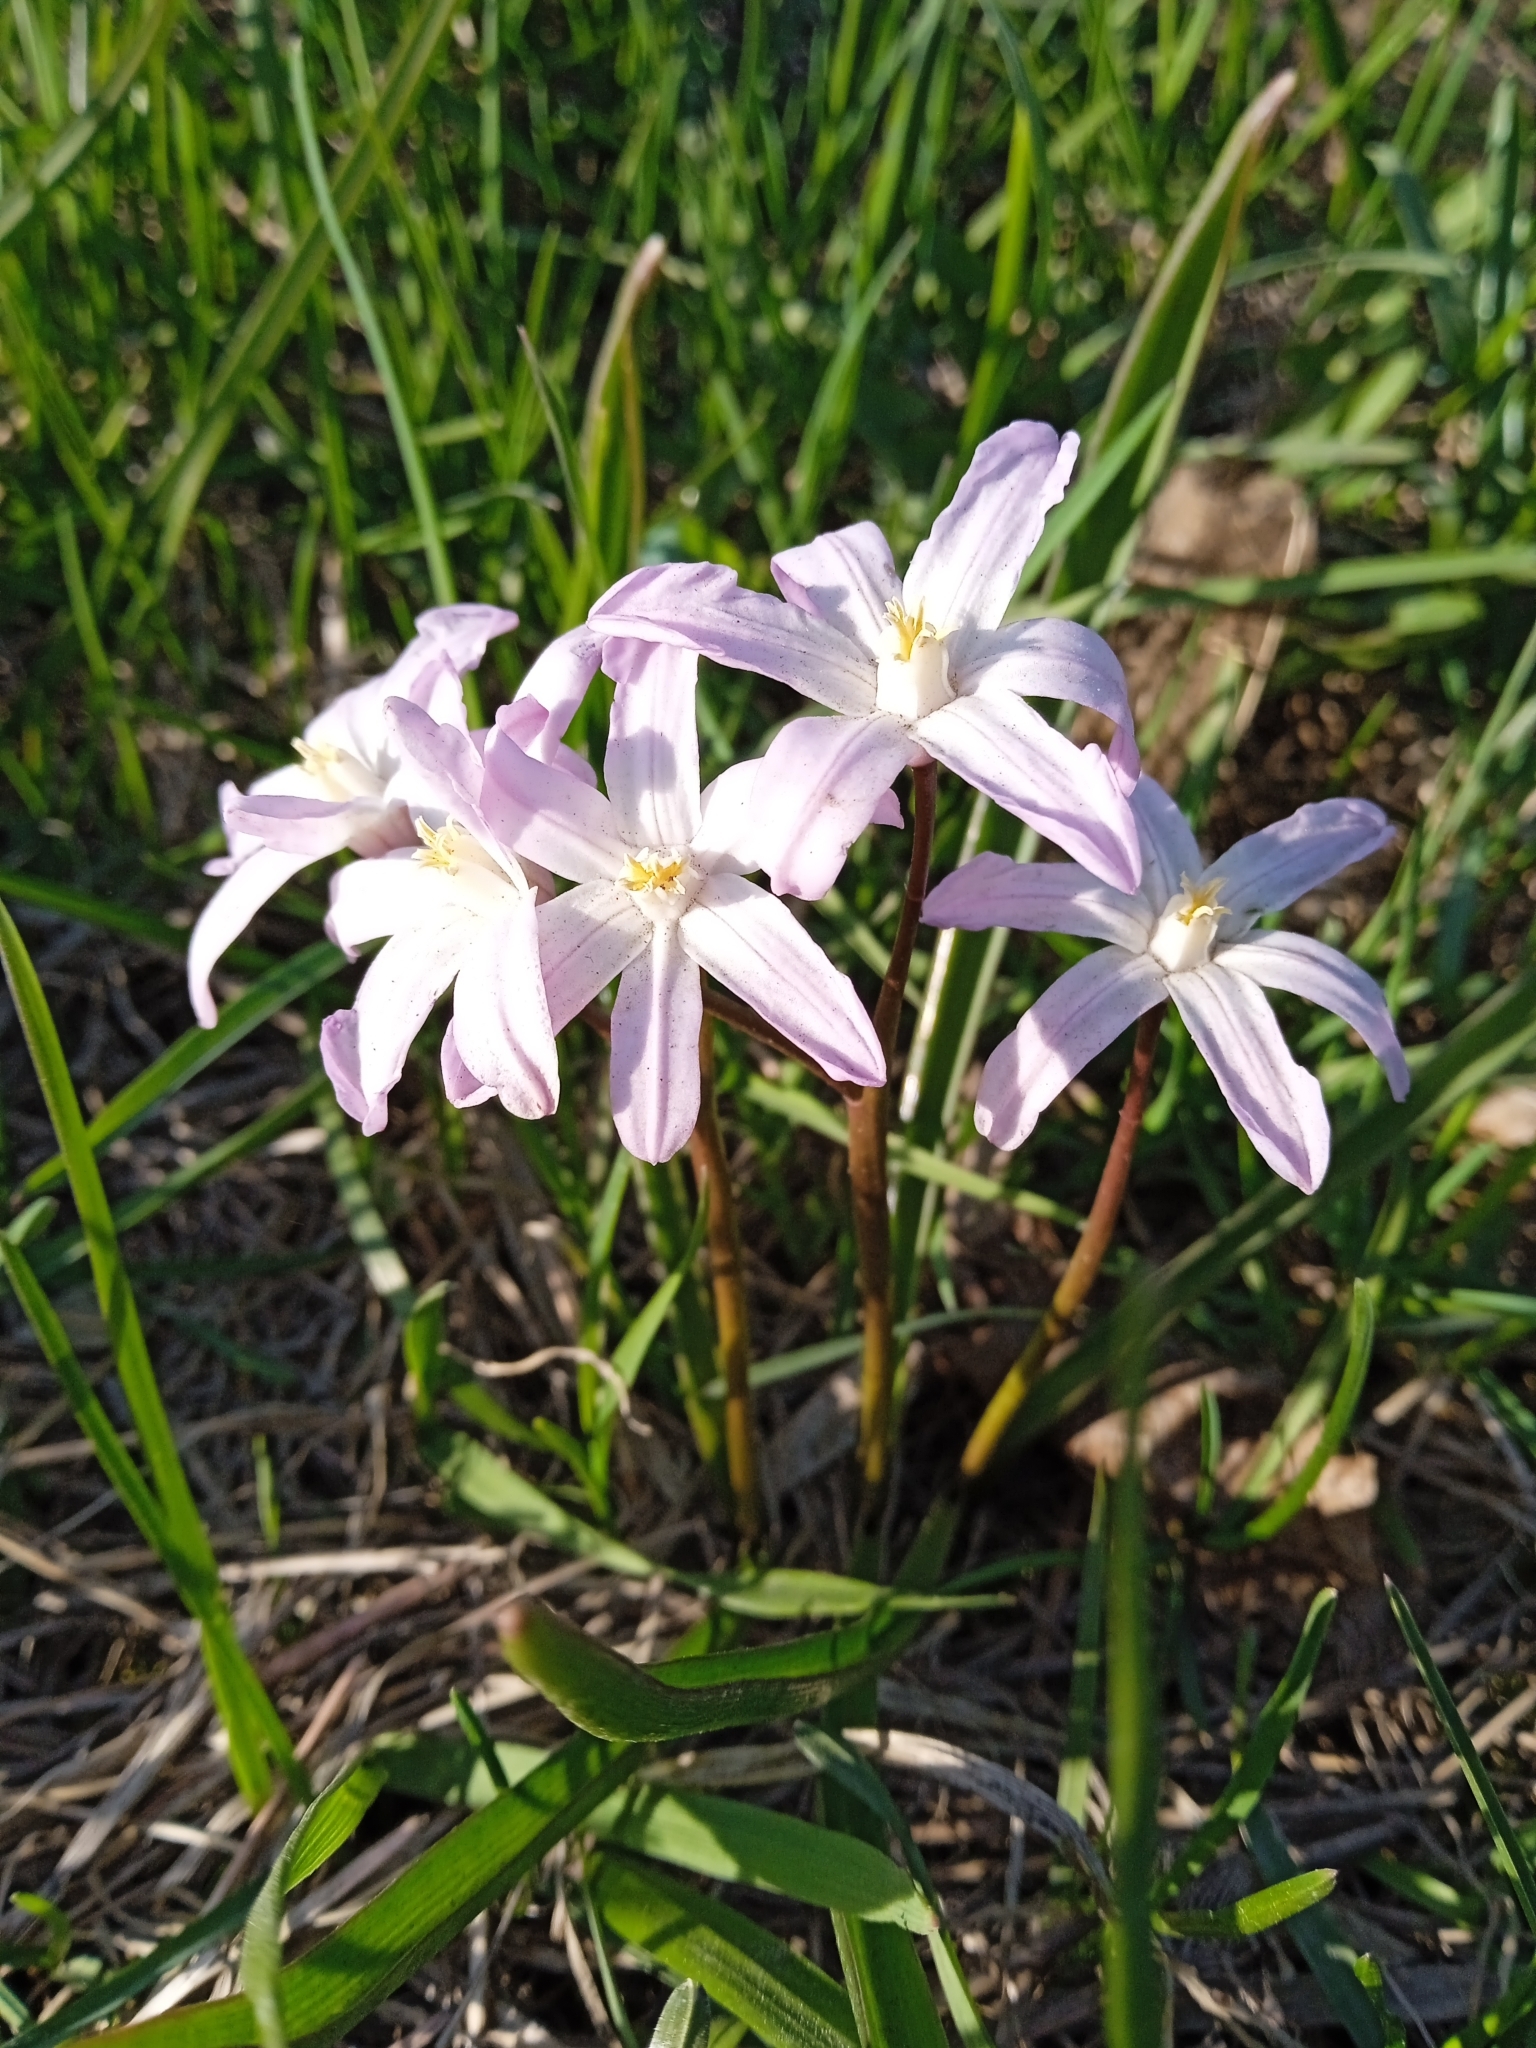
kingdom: Plantae
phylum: Tracheophyta
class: Liliopsida
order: Asparagales
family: Asparagaceae
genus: Scilla
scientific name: Scilla luciliae
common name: Boissier's glory-of-the-snow
